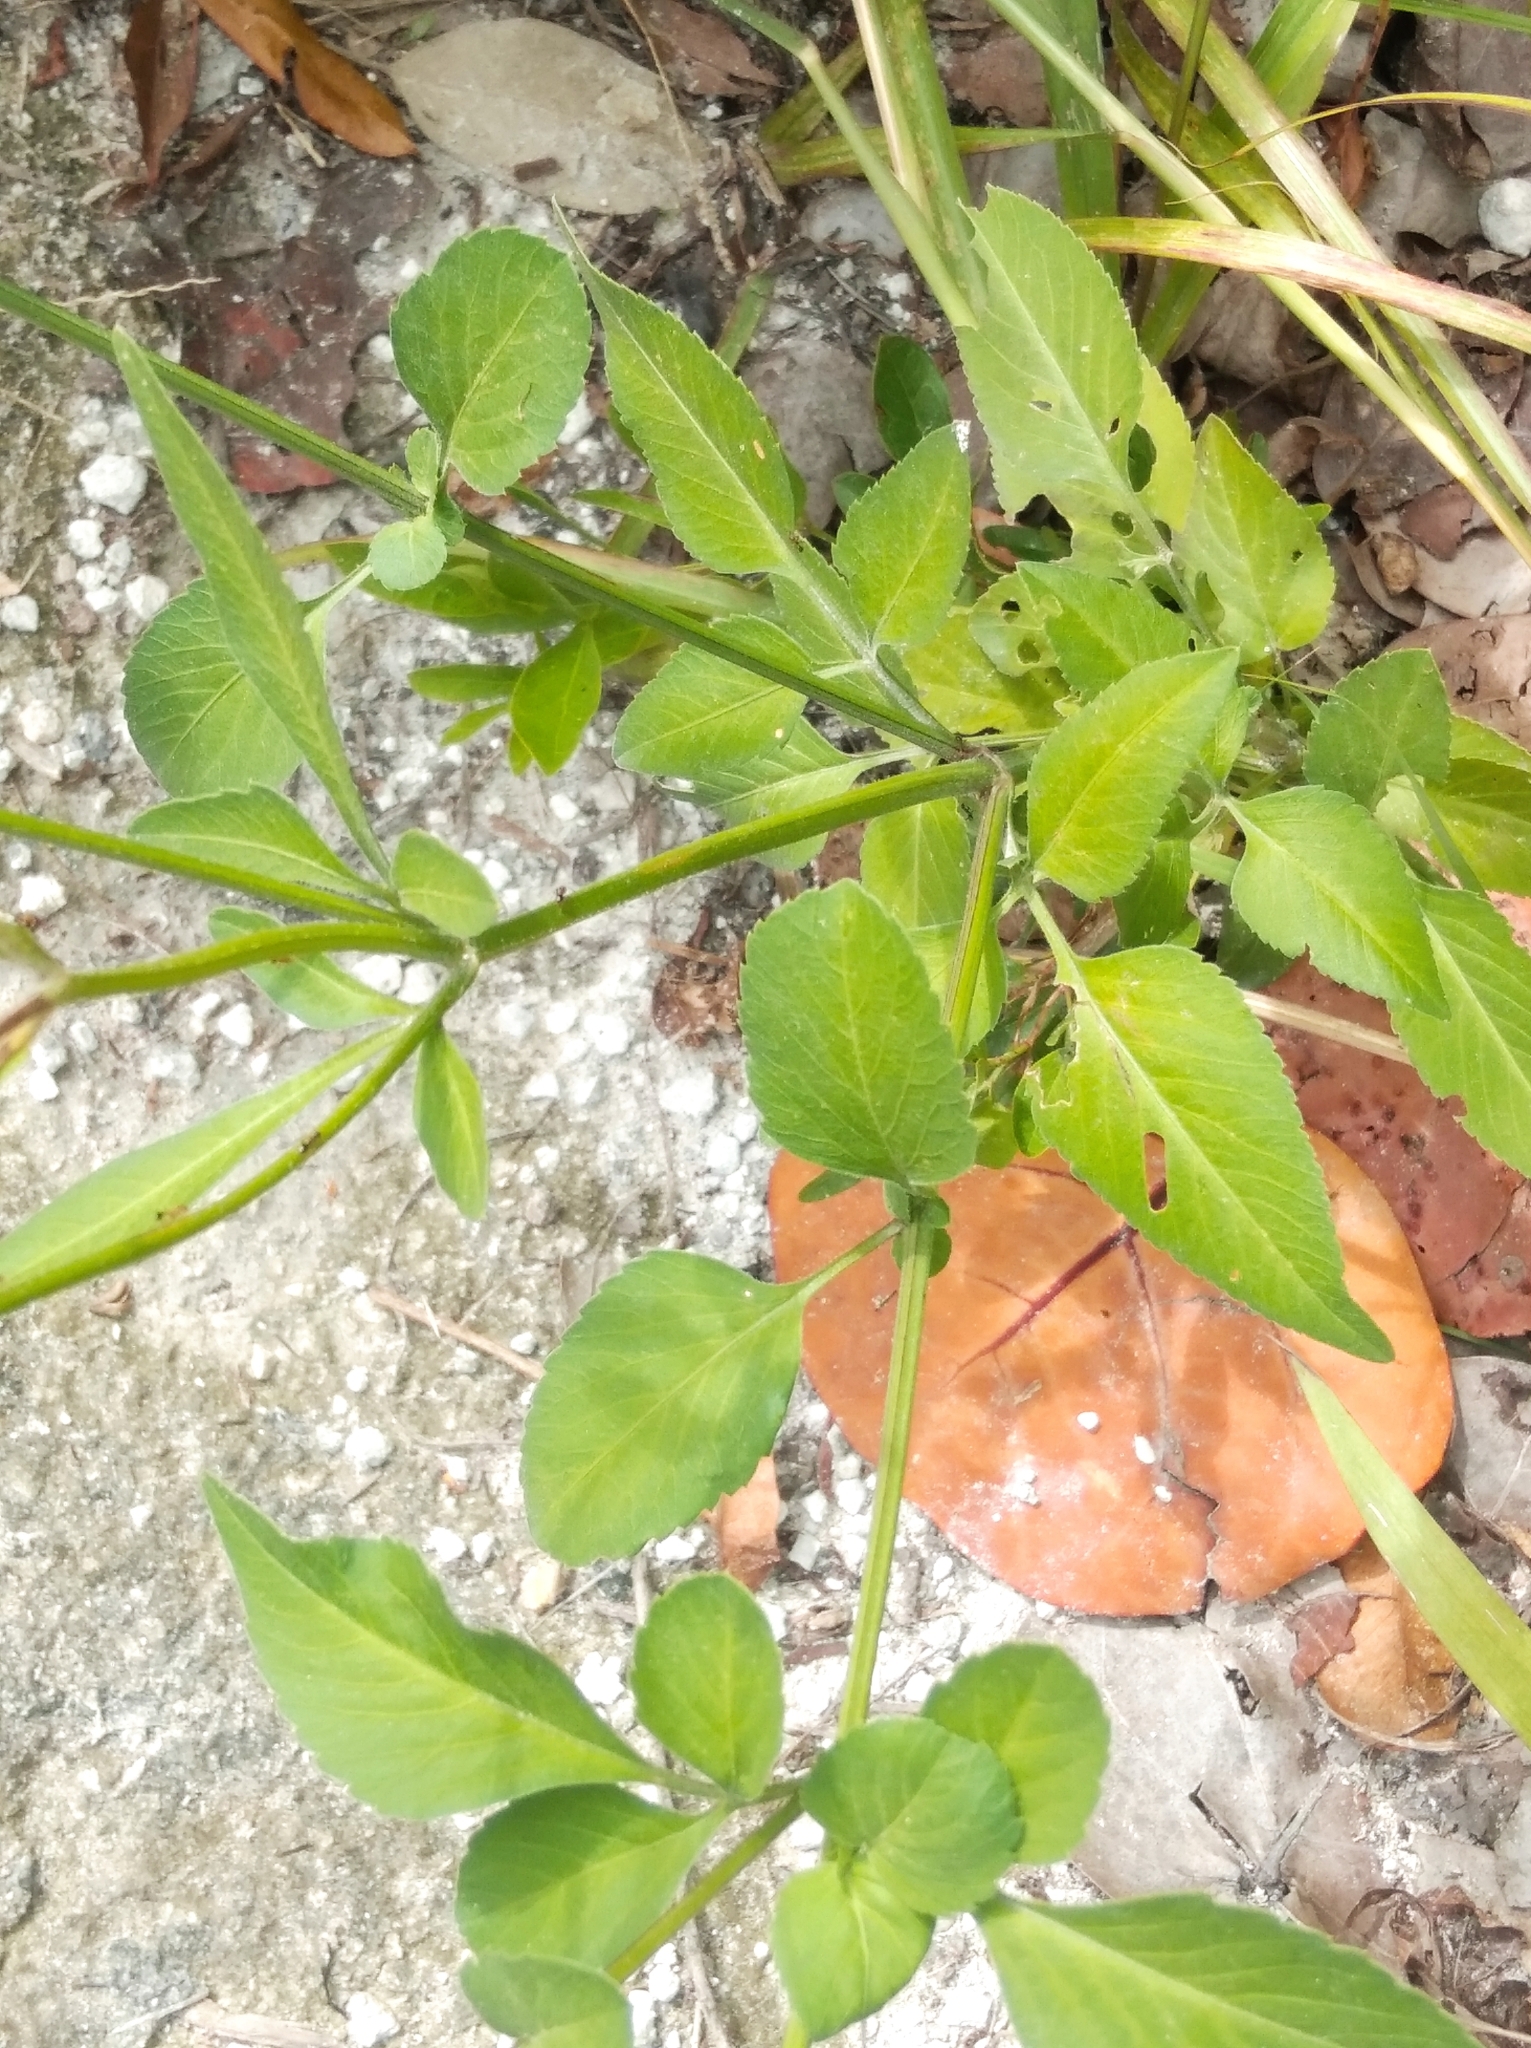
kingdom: Plantae
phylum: Tracheophyta
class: Magnoliopsida
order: Asterales
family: Asteraceae
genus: Bidens
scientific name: Bidens alba
